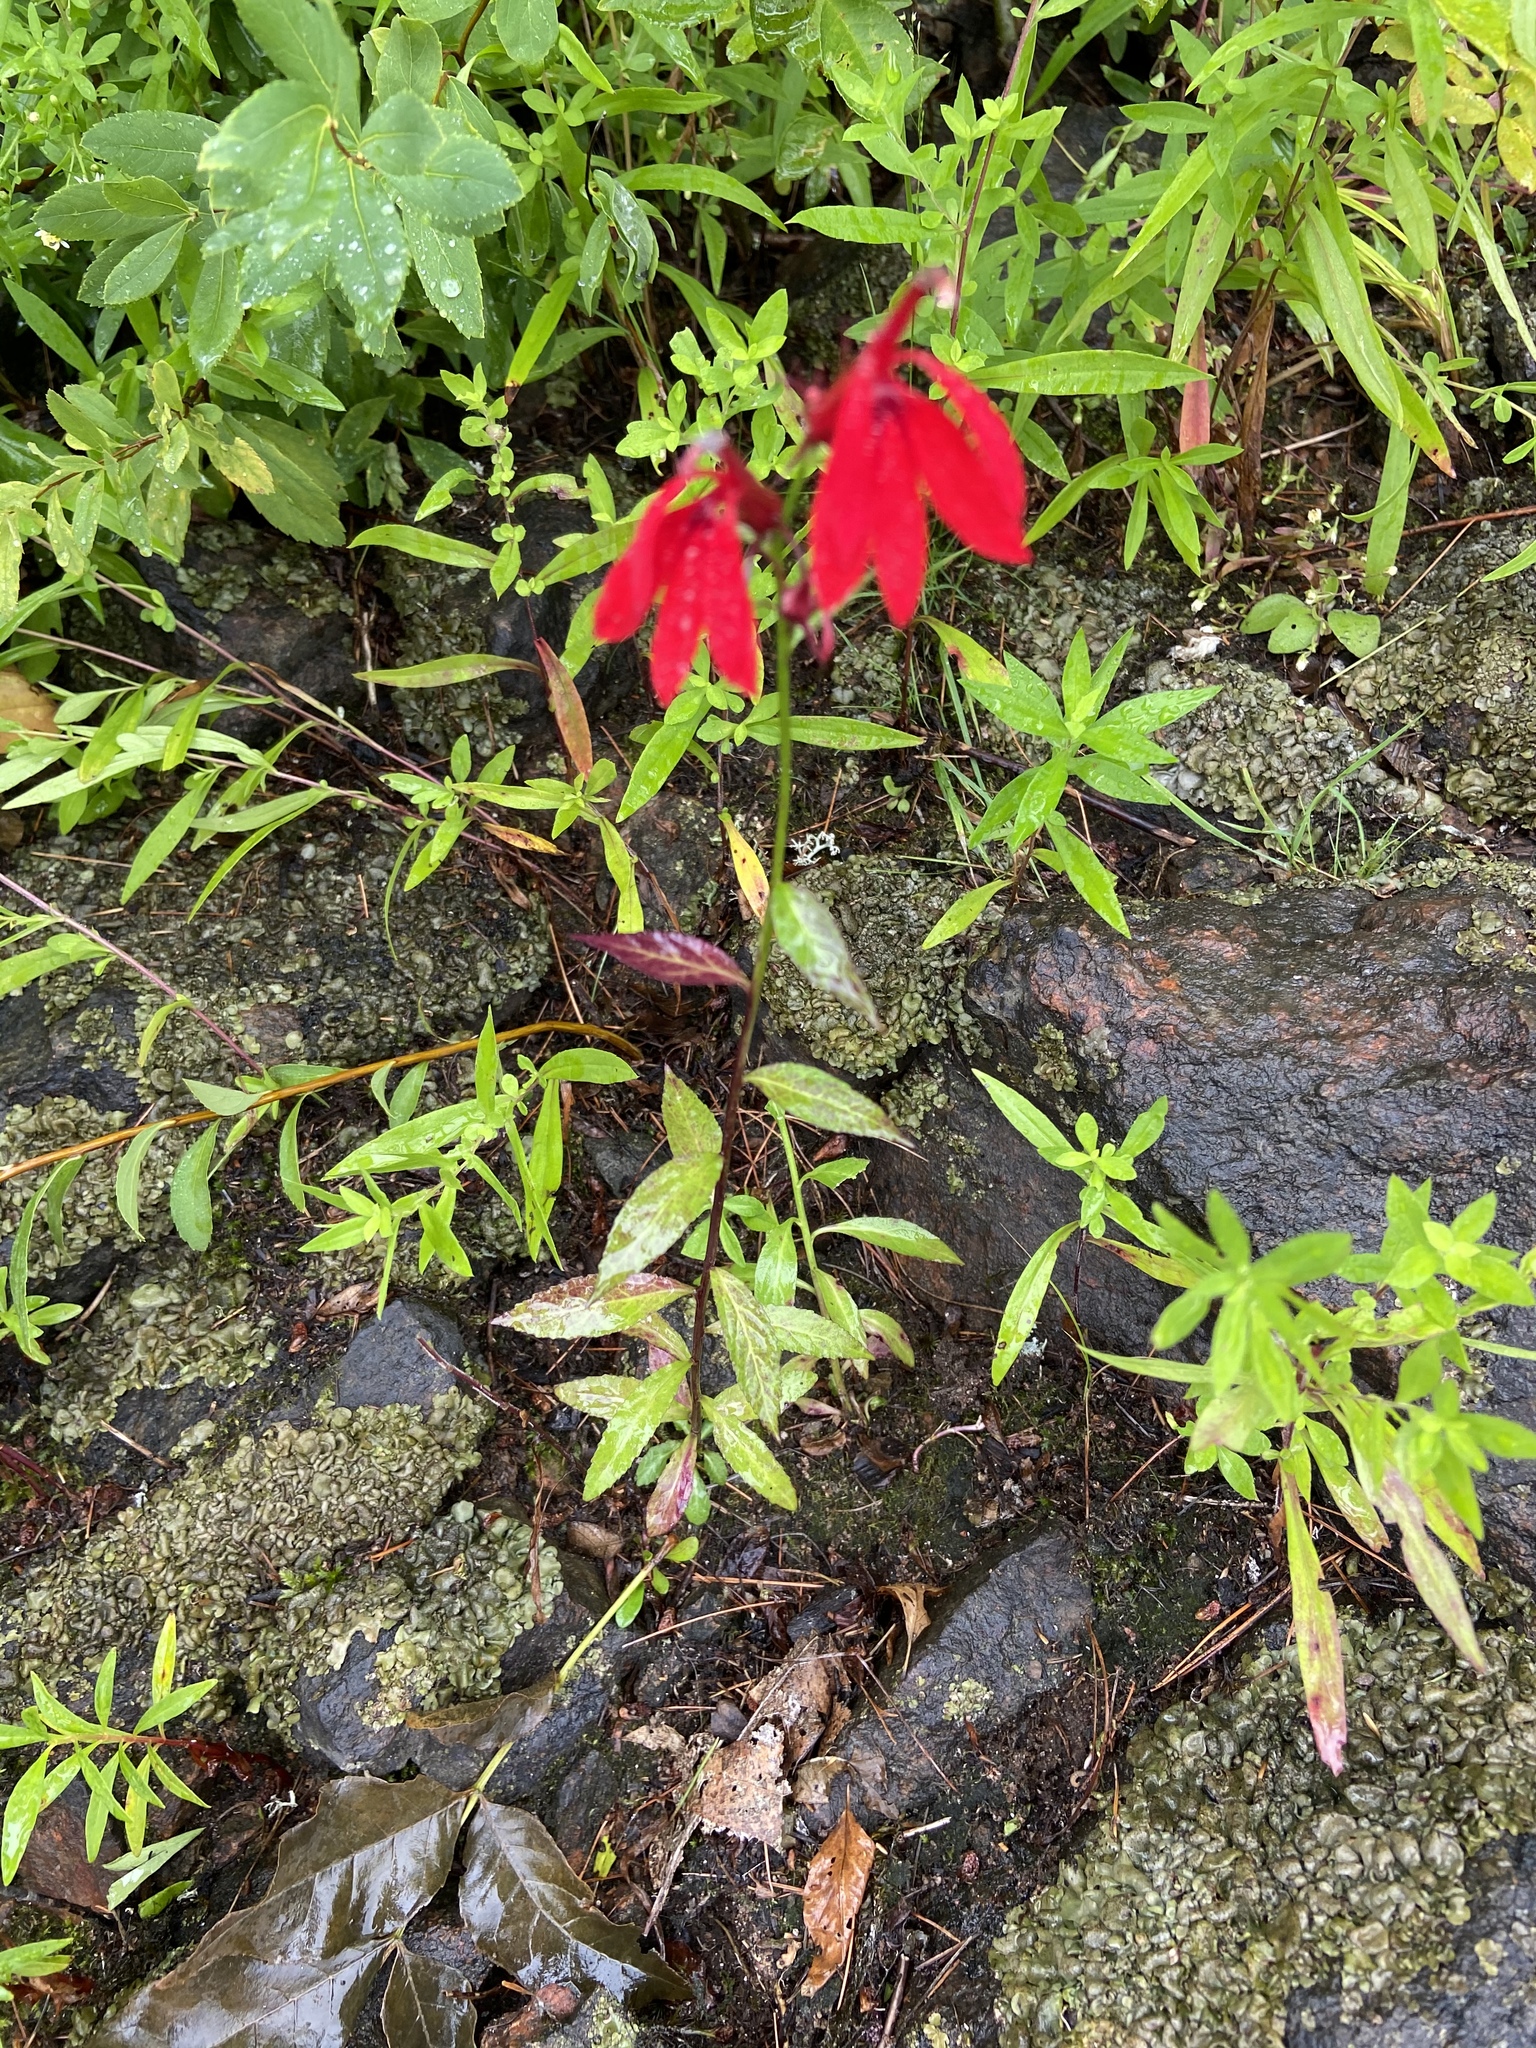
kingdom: Plantae
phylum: Tracheophyta
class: Magnoliopsida
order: Asterales
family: Campanulaceae
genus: Lobelia
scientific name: Lobelia cardinalis
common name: Cardinal flower
